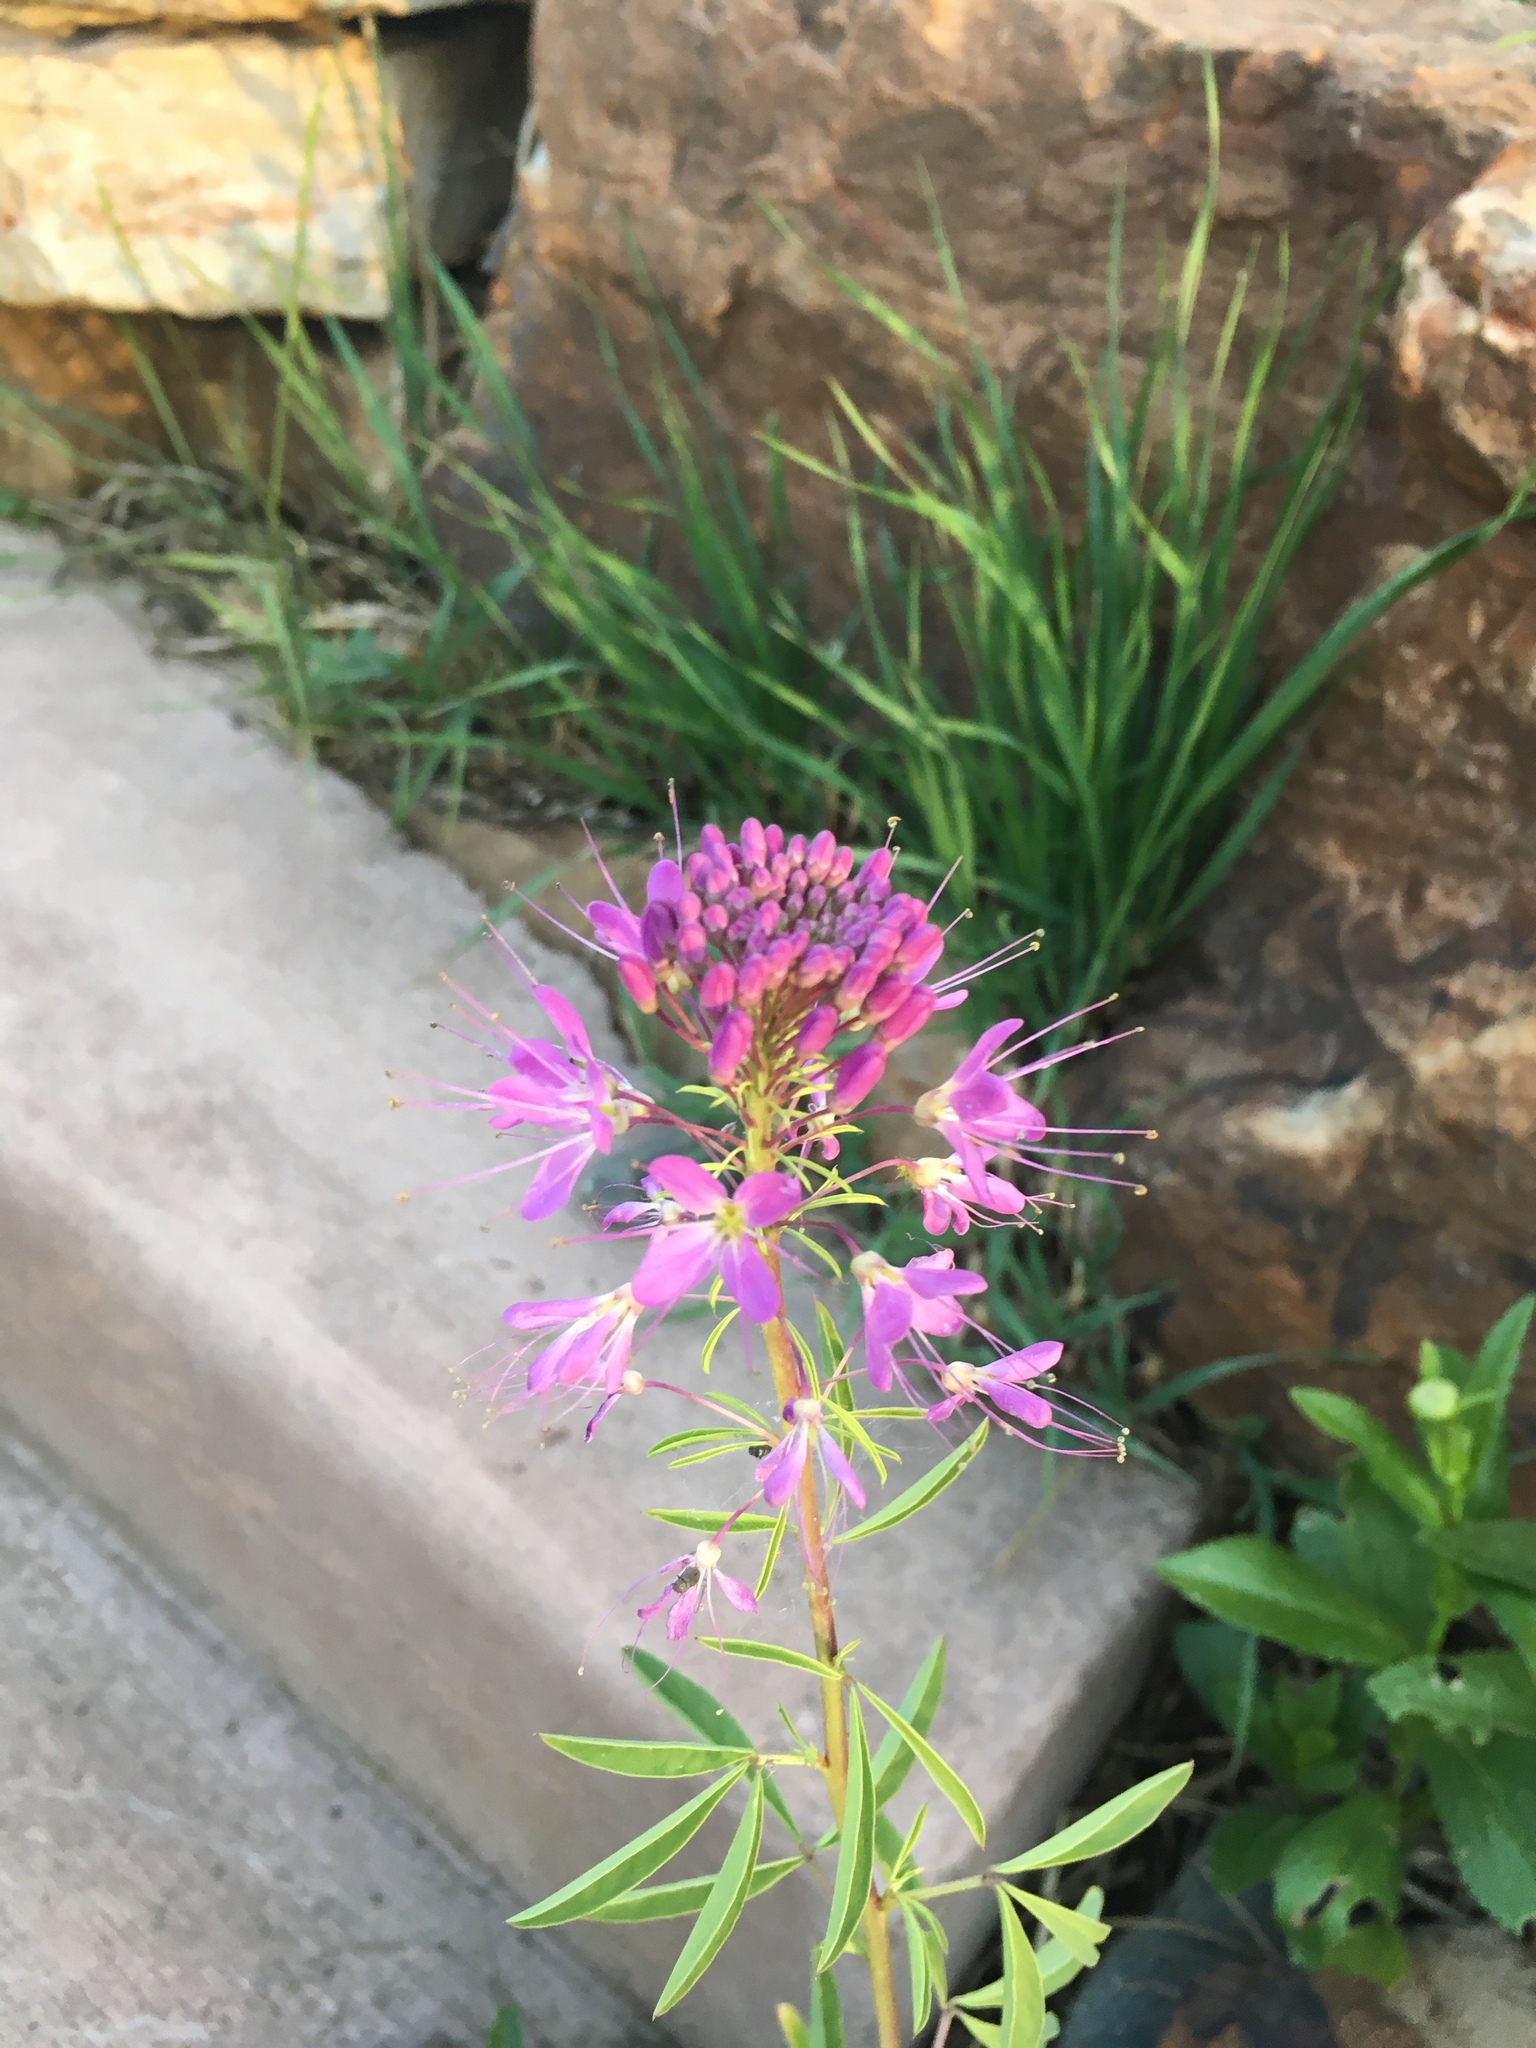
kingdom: Plantae
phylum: Tracheophyta
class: Magnoliopsida
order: Brassicales
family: Cleomaceae
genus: Cleomella
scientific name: Cleomella serrulata
